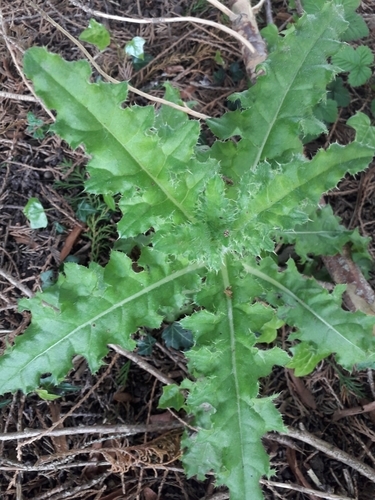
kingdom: Plantae
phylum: Tracheophyta
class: Magnoliopsida
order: Asterales
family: Asteraceae
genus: Cirsium
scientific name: Cirsium arvense
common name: Creeping thistle
